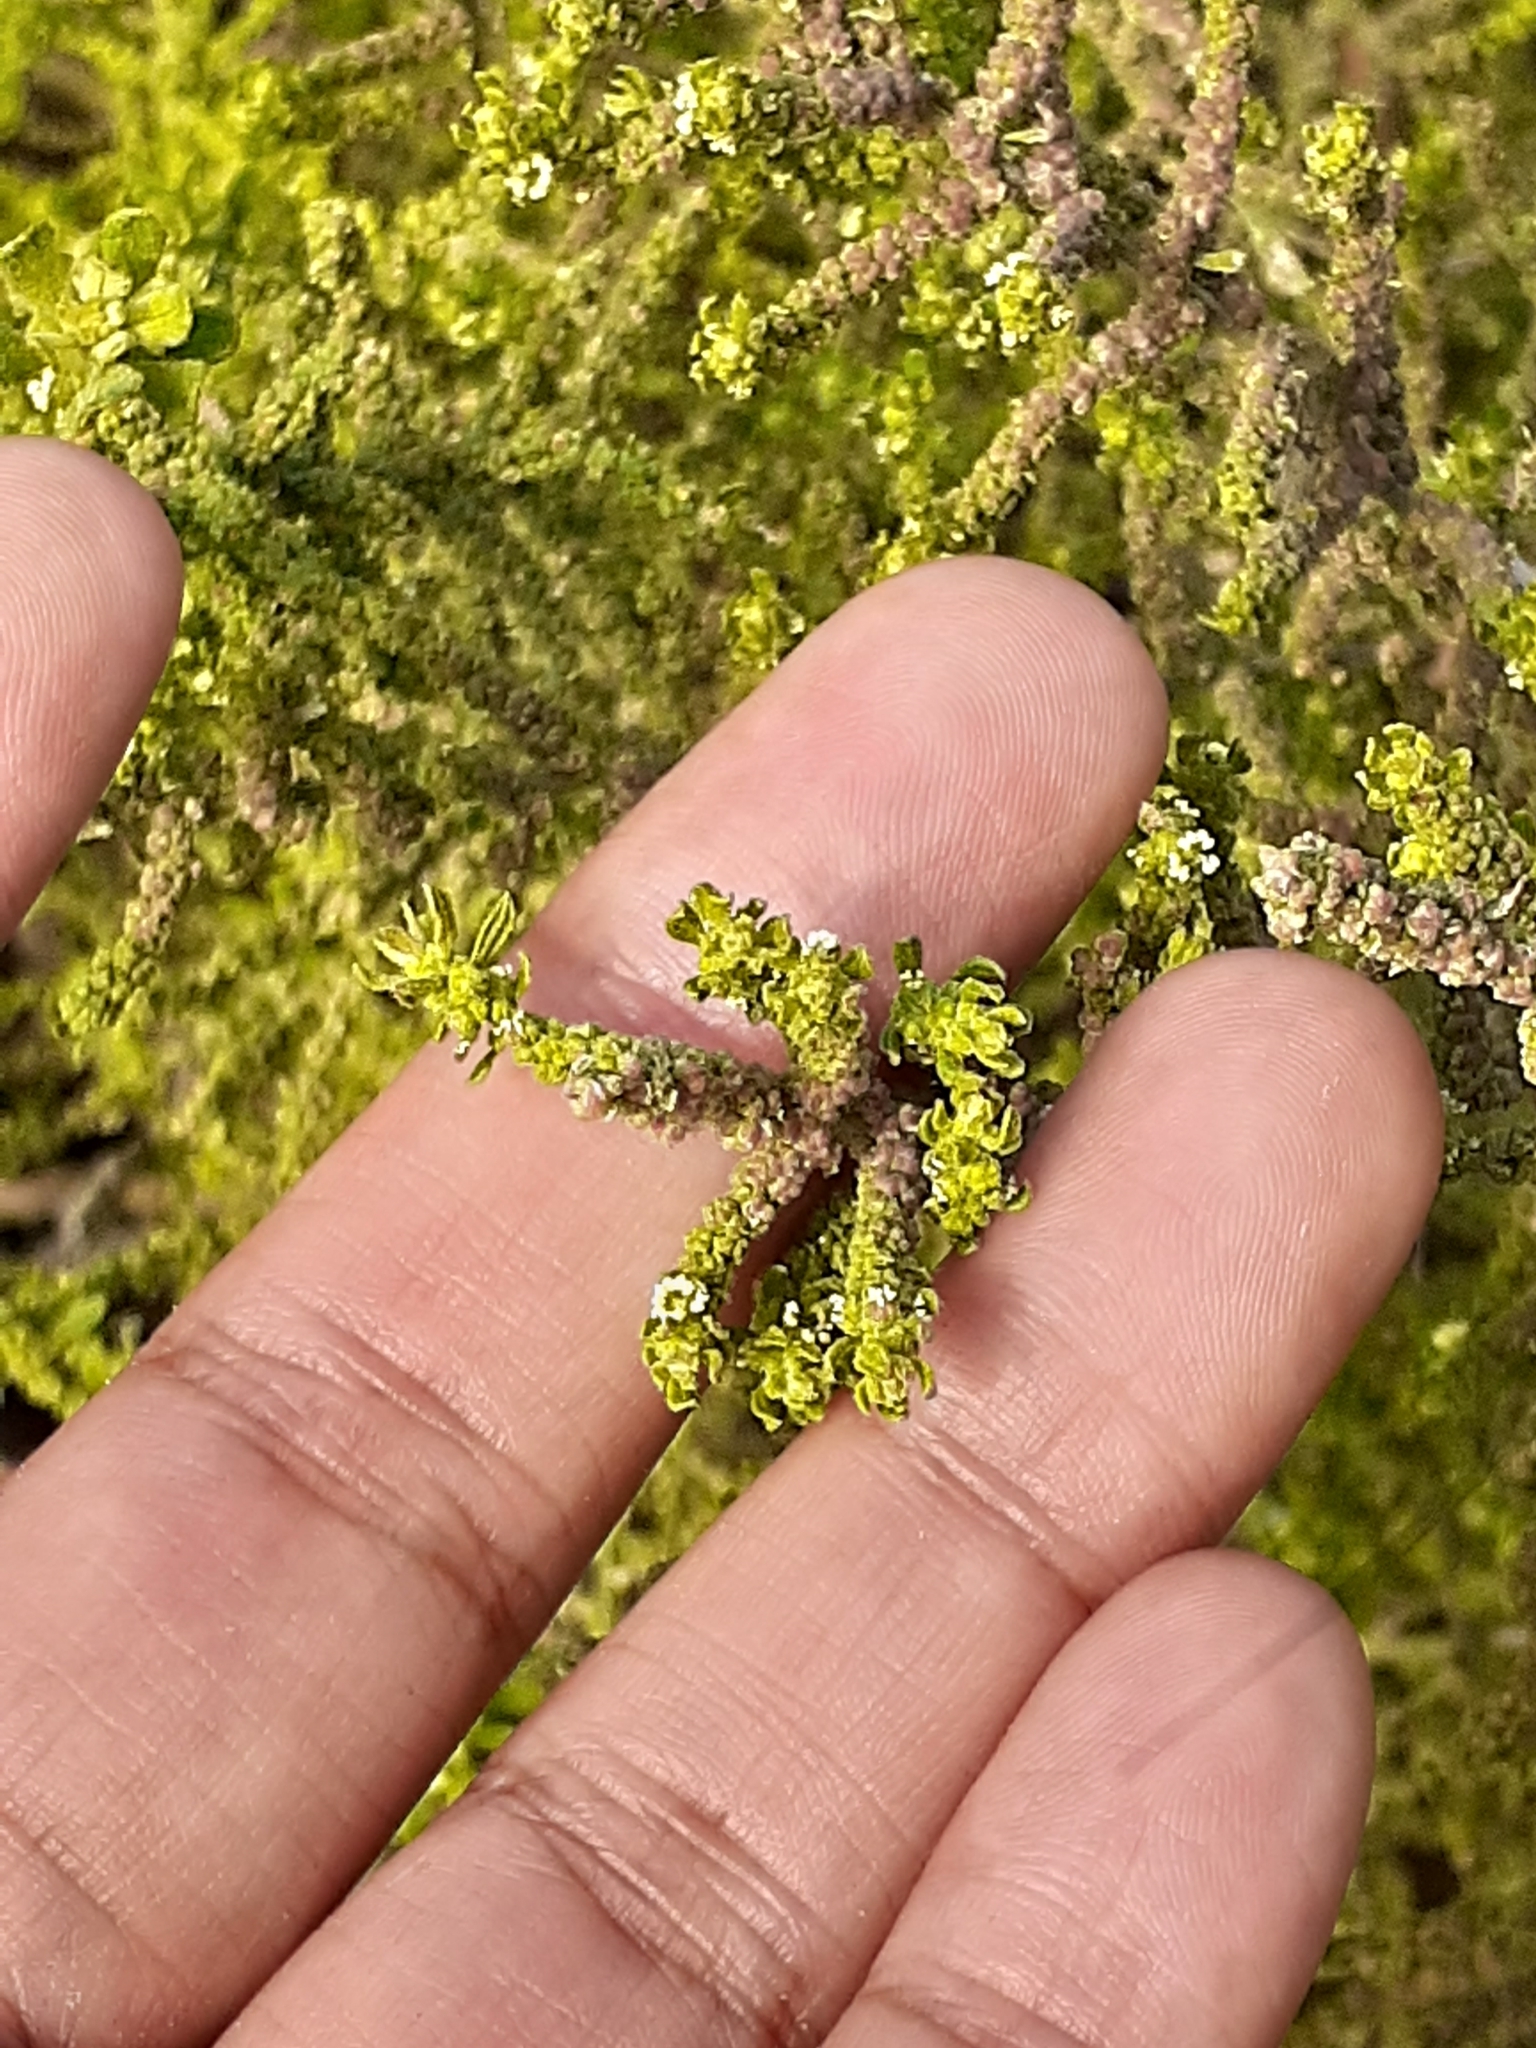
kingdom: Plantae
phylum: Tracheophyta
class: Magnoliopsida
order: Caryophyllales
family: Amaranthaceae
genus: Dysphania
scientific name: Dysphania ambrosioides
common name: Wormseed
